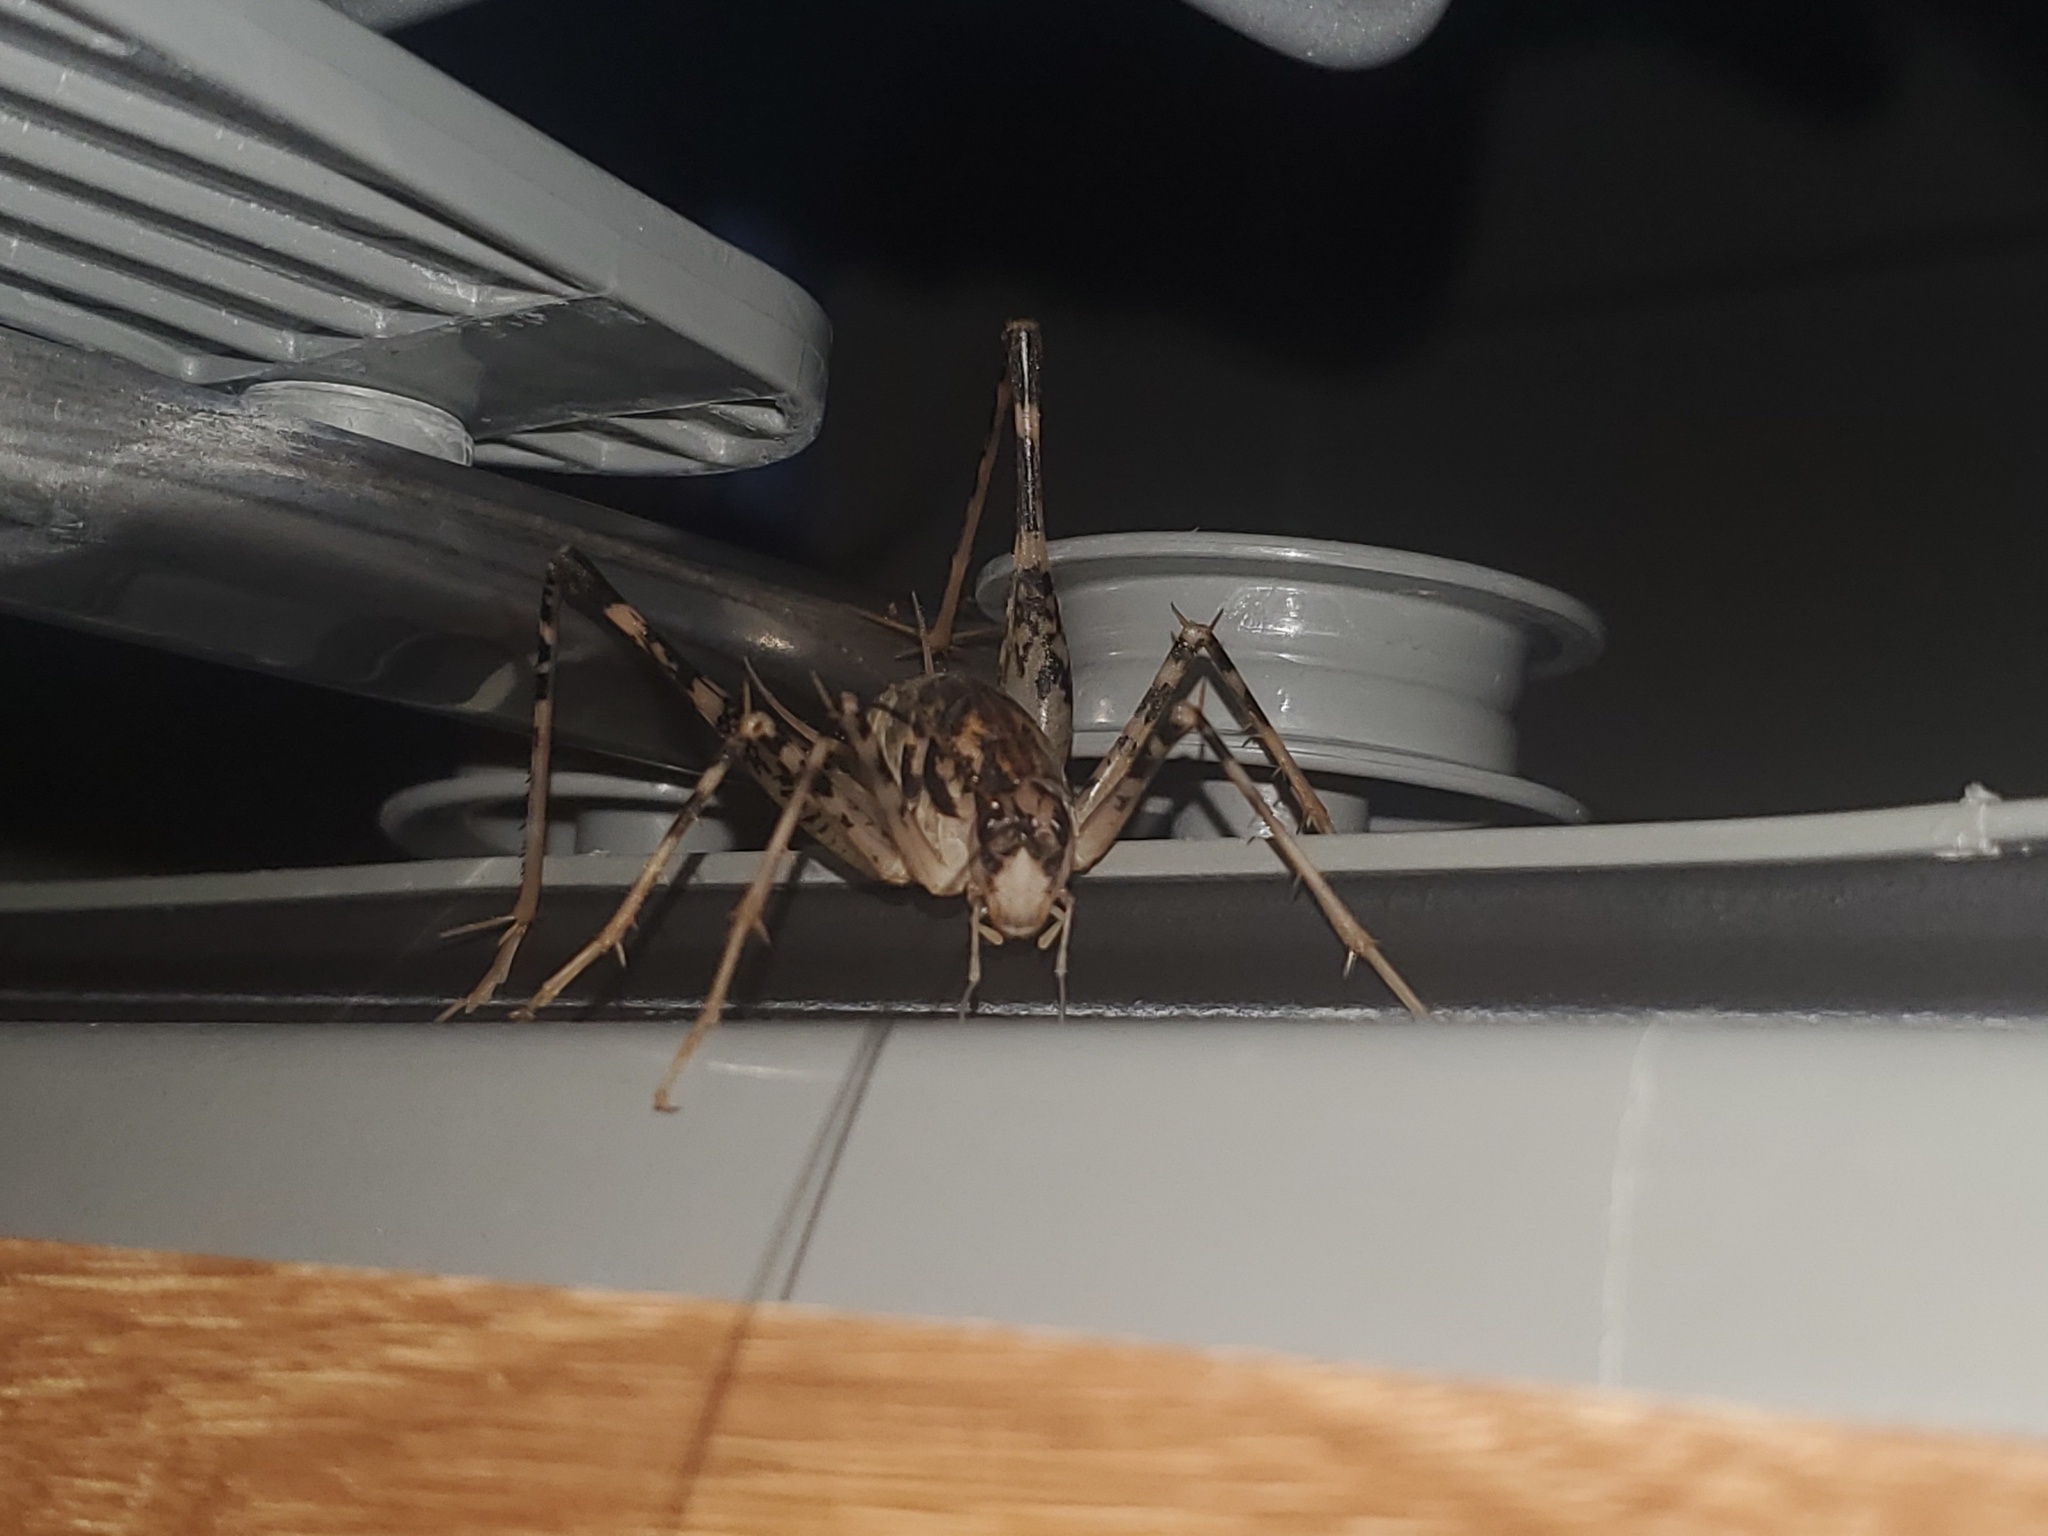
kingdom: Animalia
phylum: Arthropoda
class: Insecta
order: Orthoptera
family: Rhaphidophoridae
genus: Diestrammena
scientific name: Diestrammena japanica
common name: Japanese camel cricket
